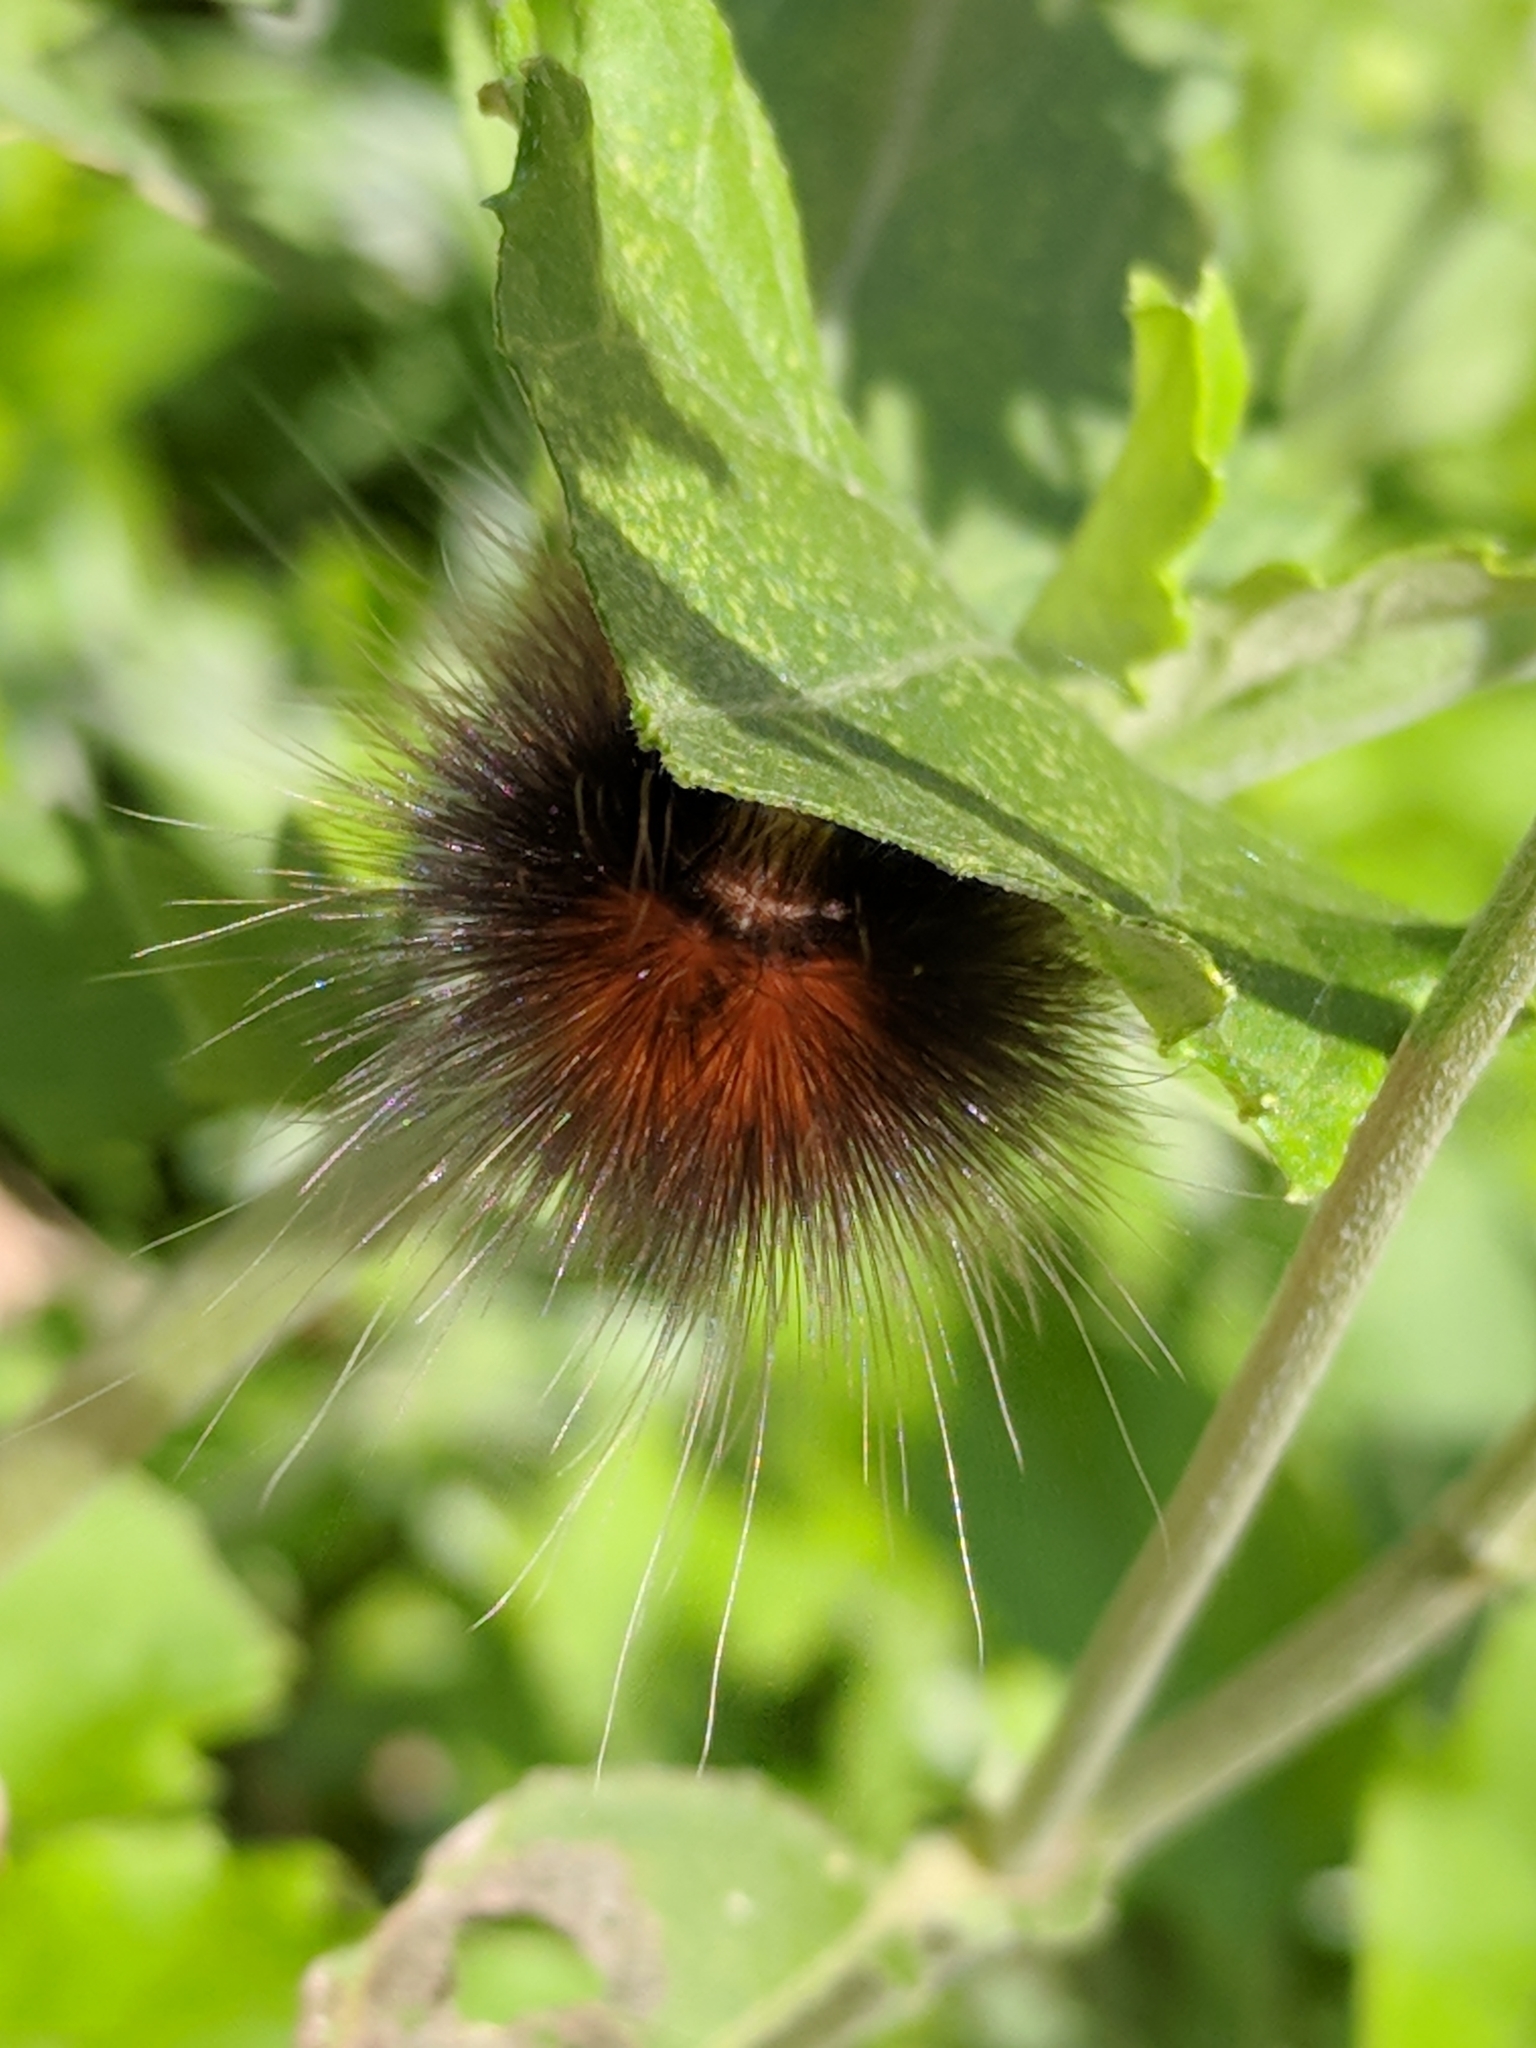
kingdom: Animalia
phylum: Arthropoda
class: Insecta
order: Lepidoptera
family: Erebidae
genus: Spilosoma
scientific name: Spilosoma virginica
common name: Virginia tiger moth
